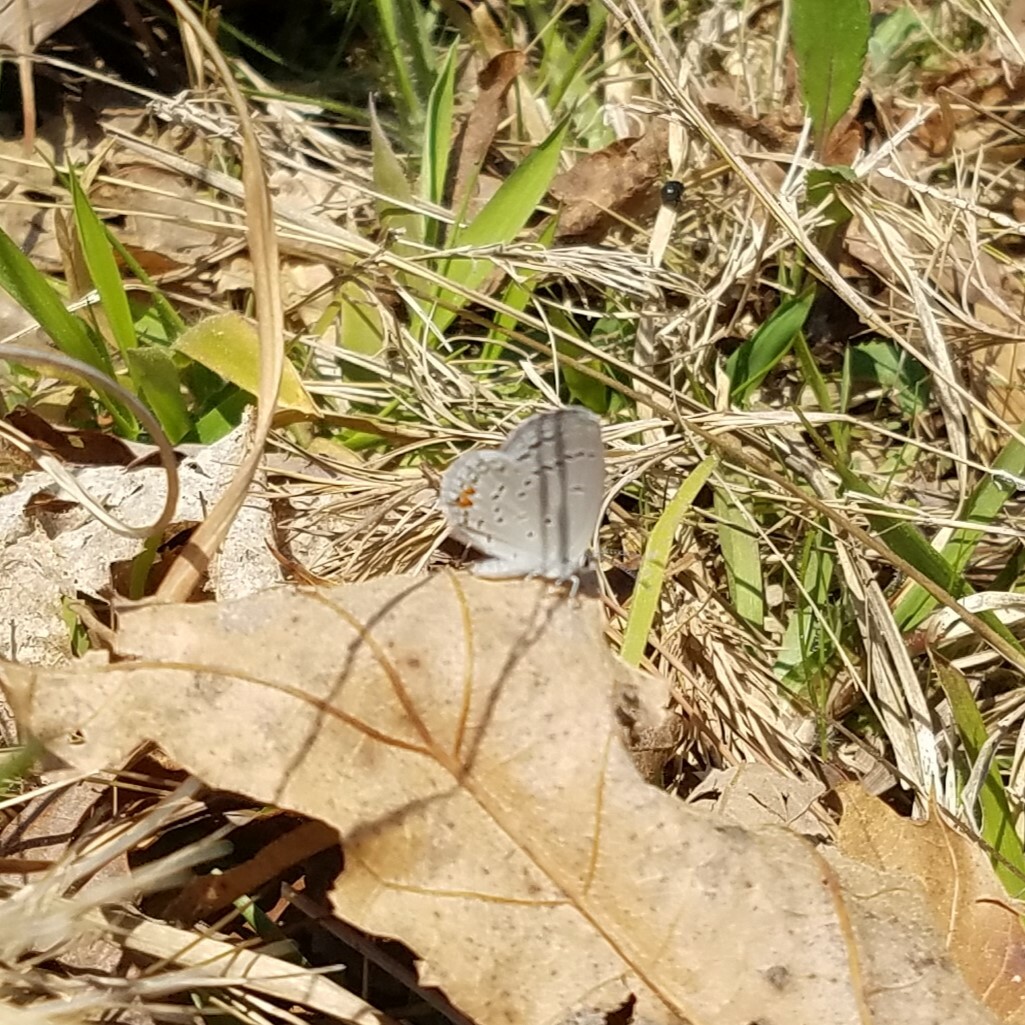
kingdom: Animalia
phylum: Arthropoda
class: Insecta
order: Lepidoptera
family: Lycaenidae
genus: Elkalyce
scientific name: Elkalyce comyntas
